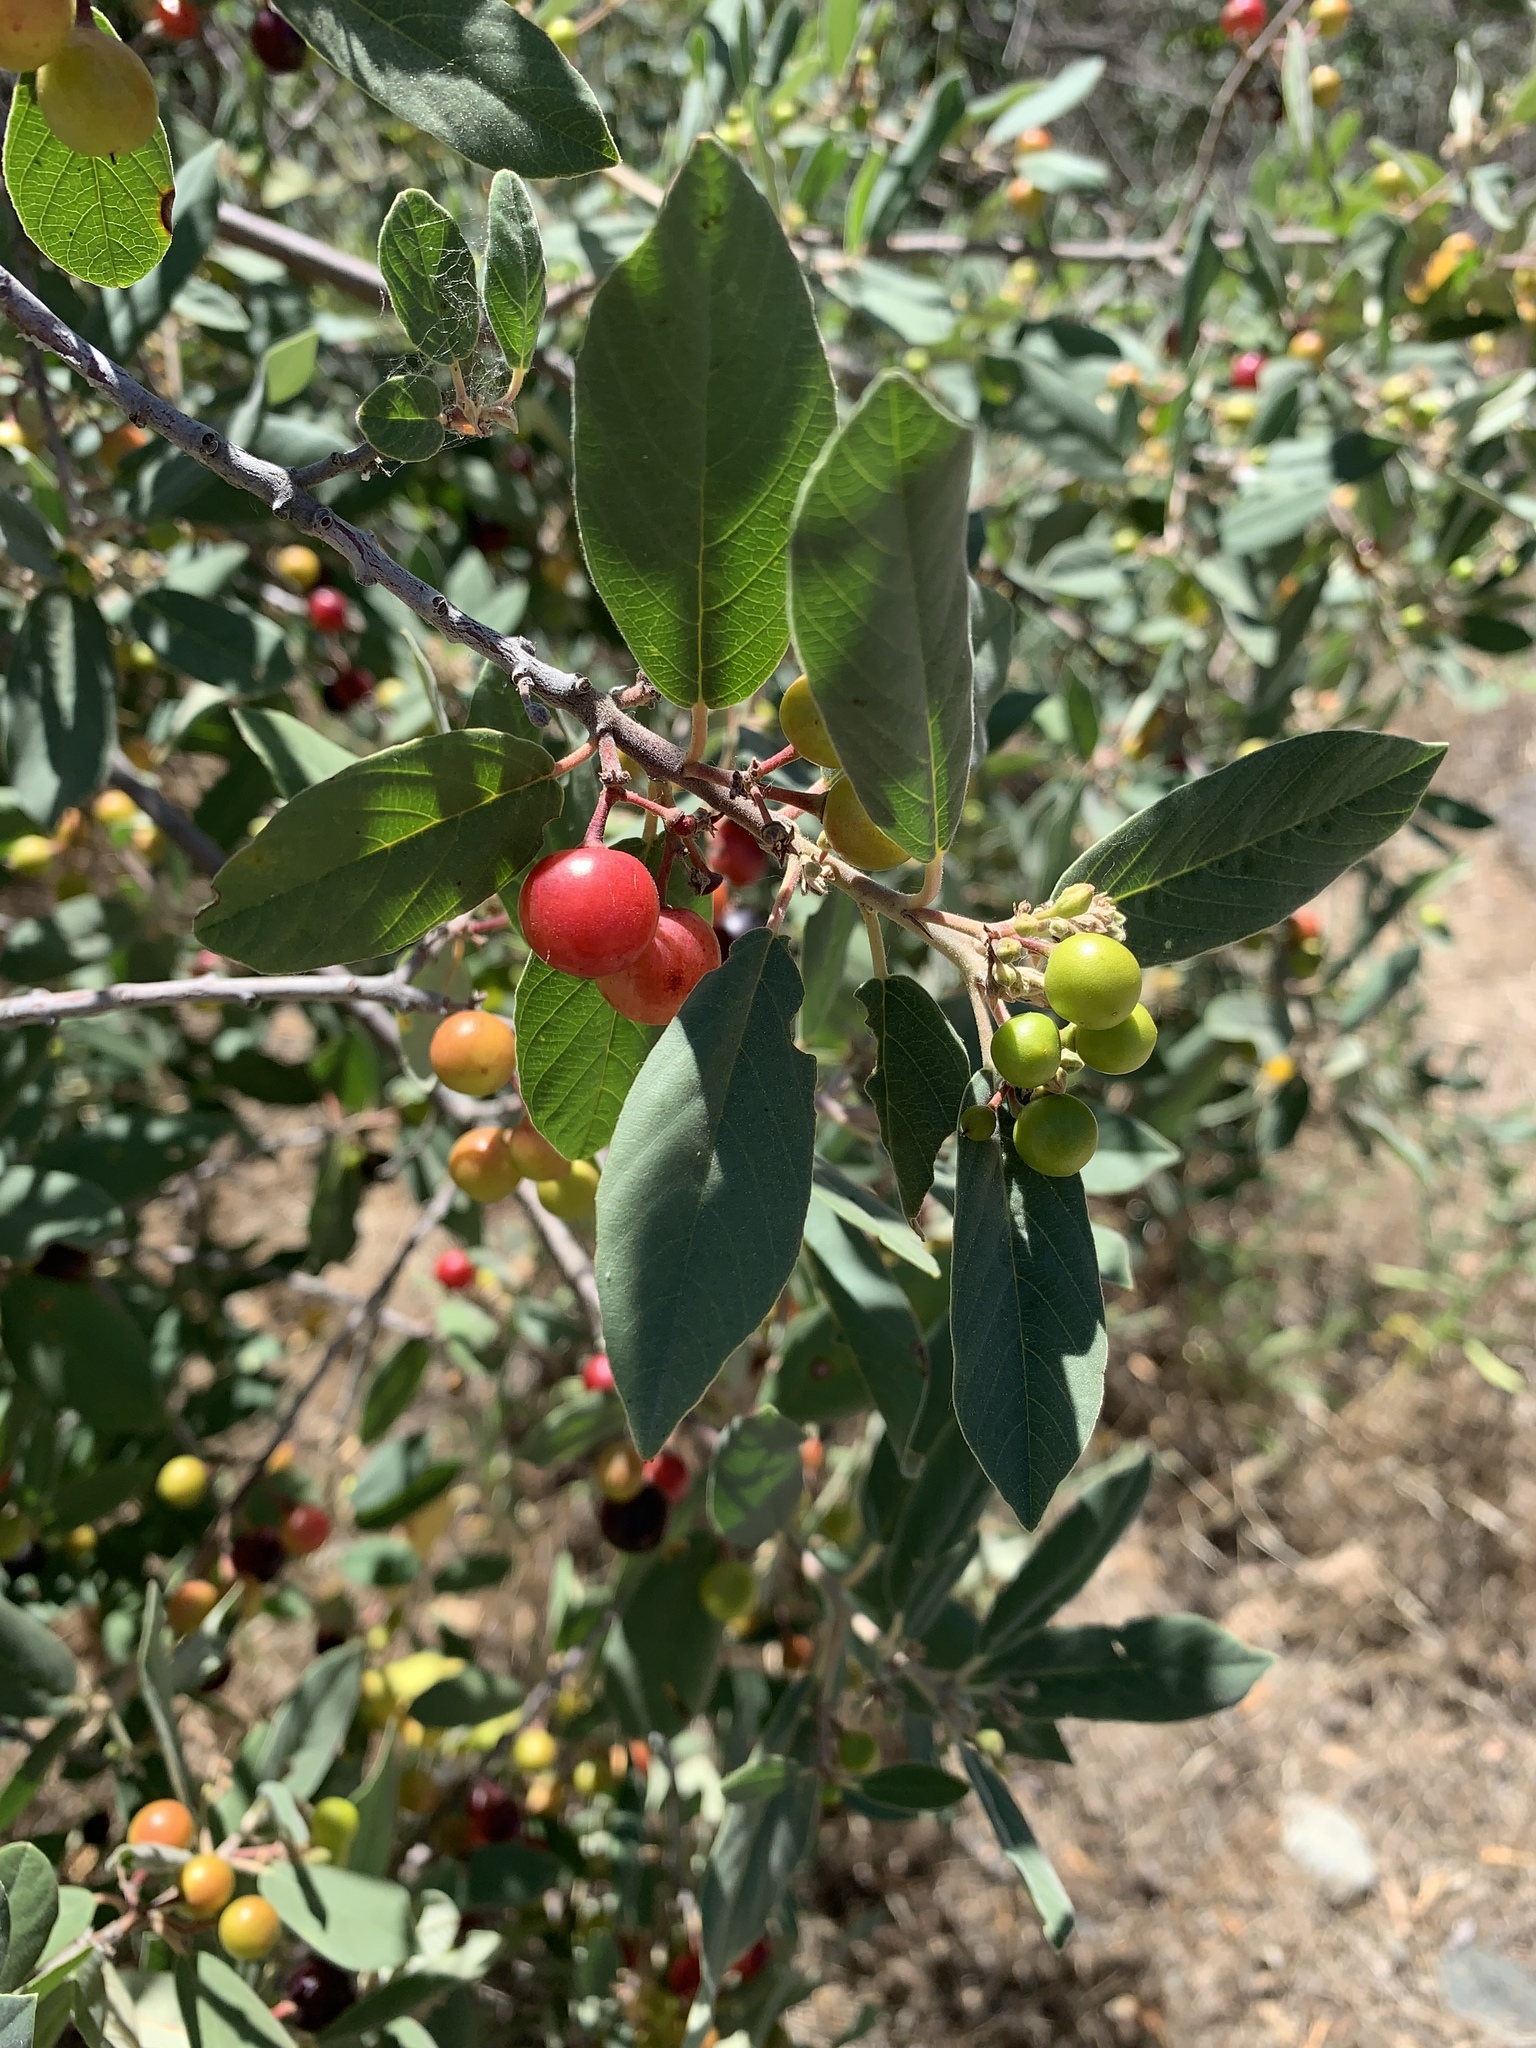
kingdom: Plantae
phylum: Tracheophyta
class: Magnoliopsida
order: Rosales
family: Rhamnaceae
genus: Frangula
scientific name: Frangula californica
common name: California buckthorn
